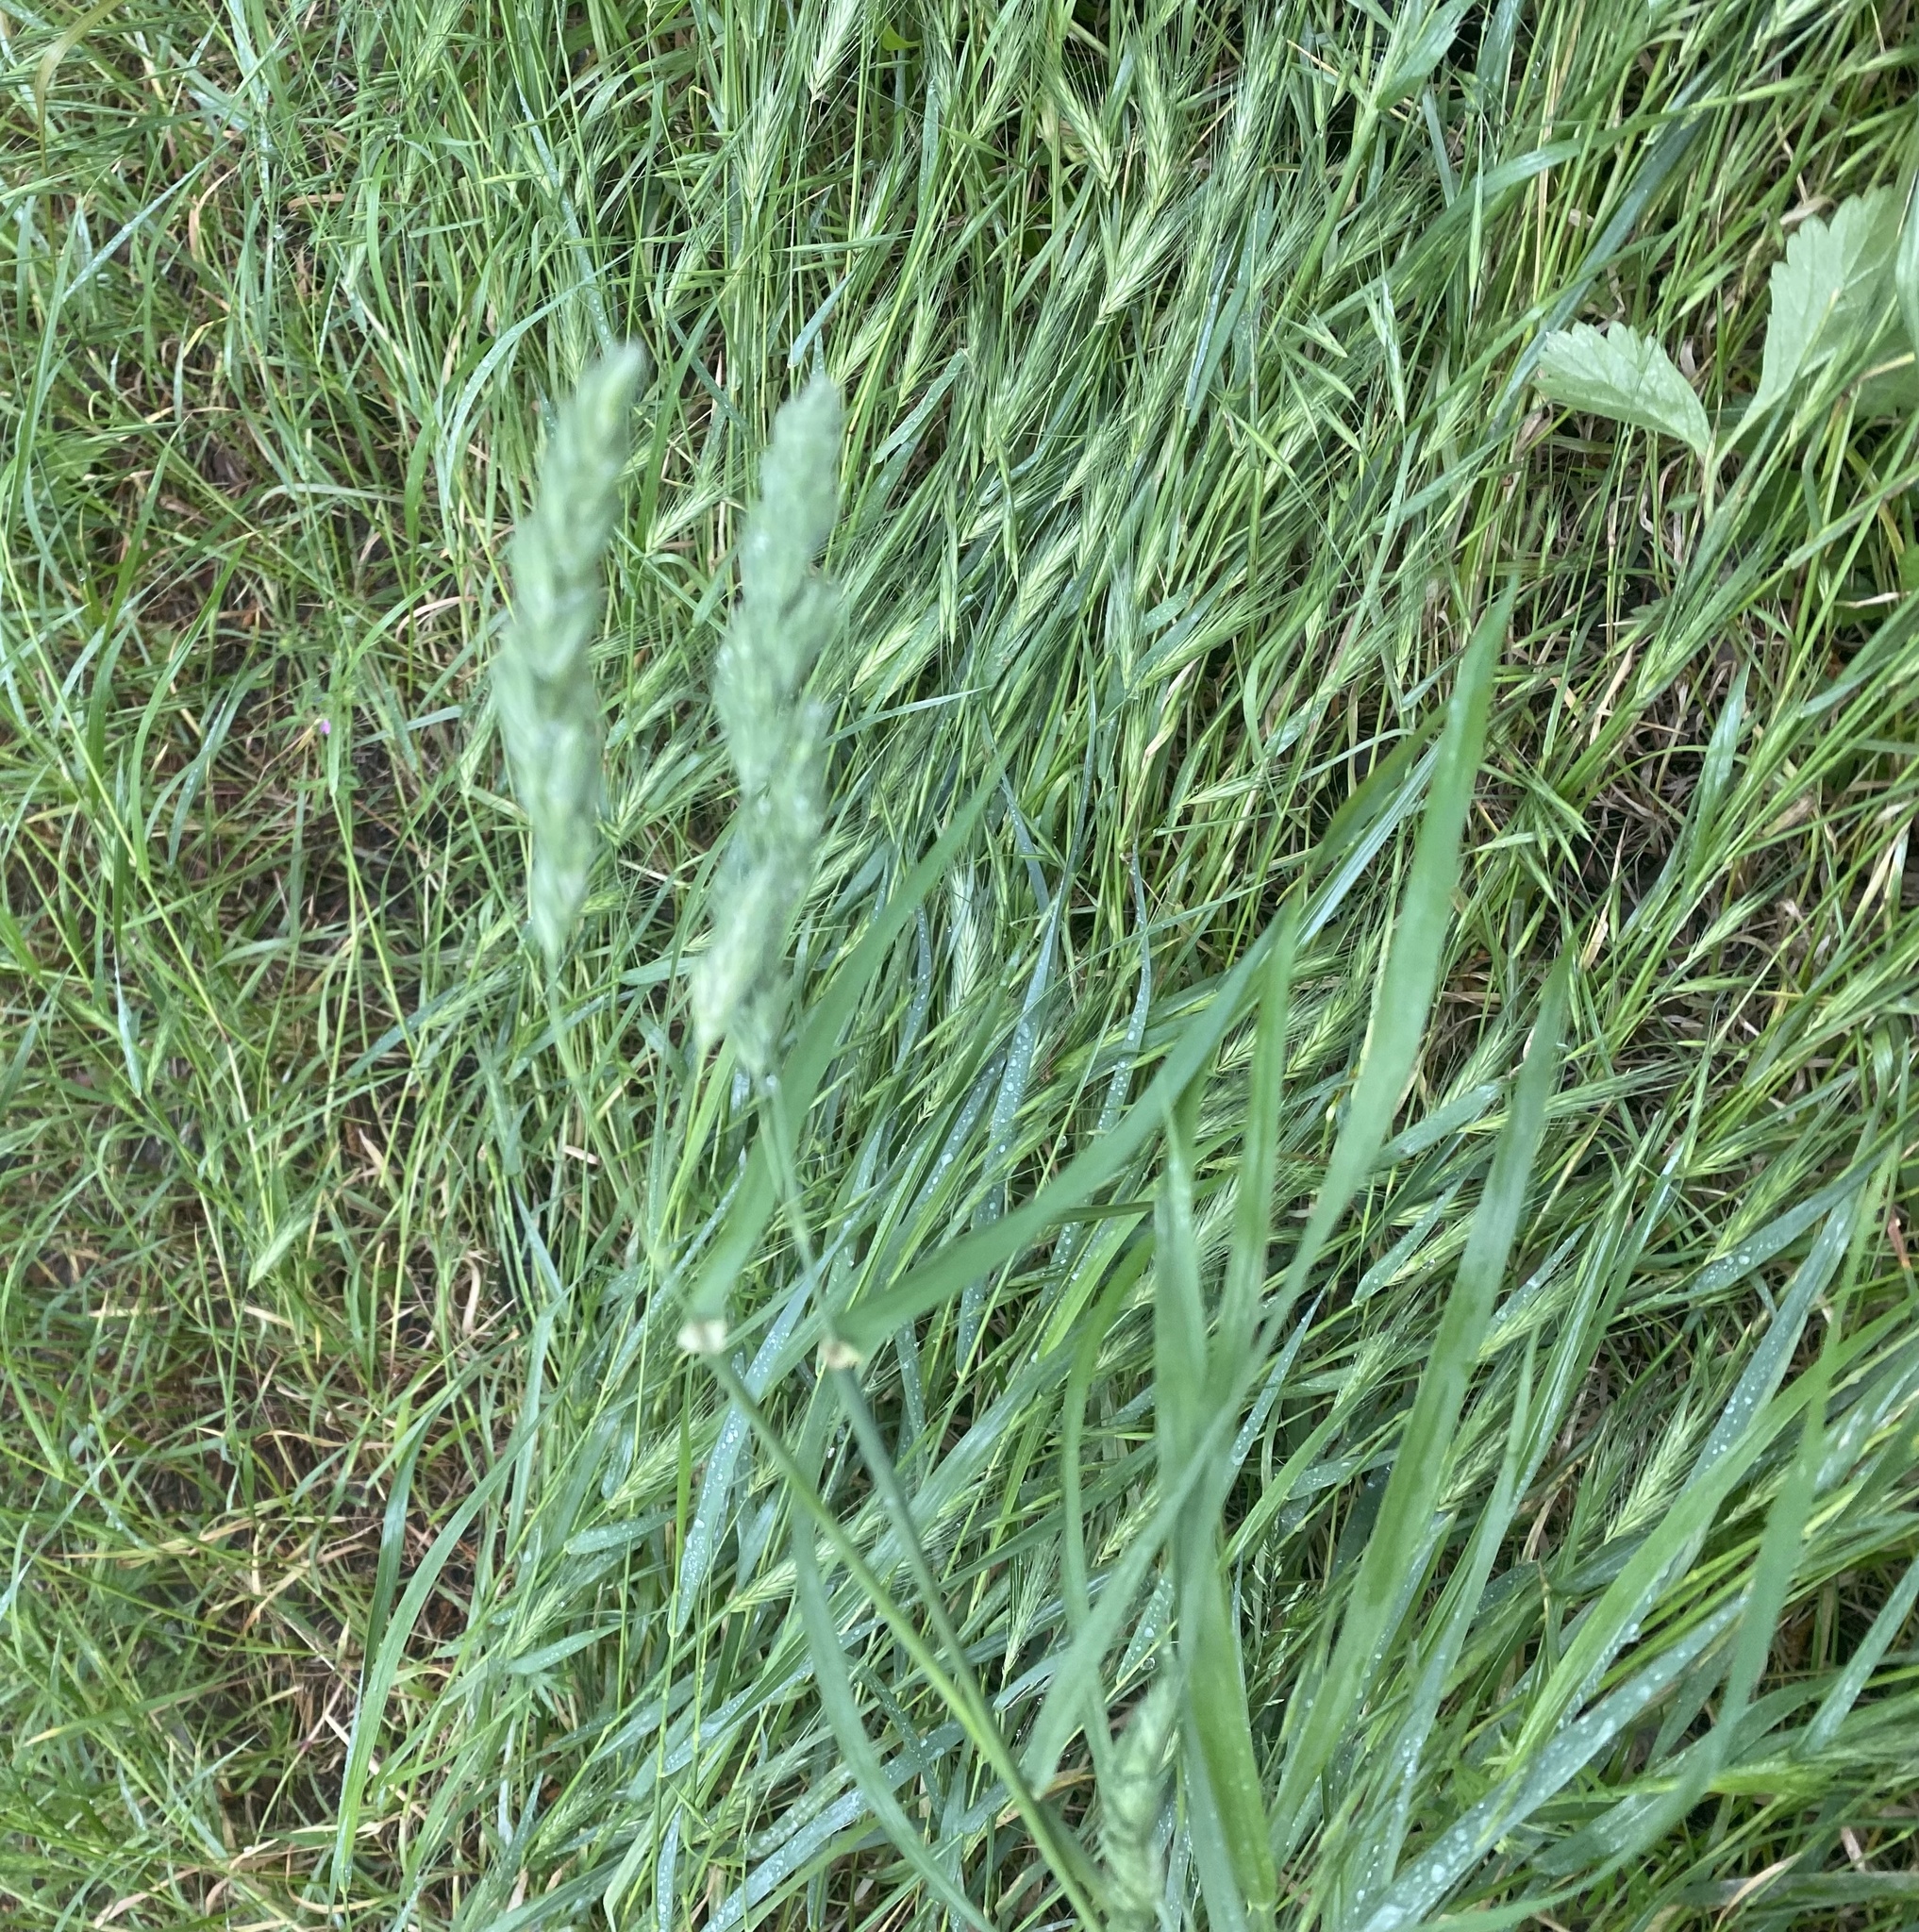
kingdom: Plantae
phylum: Tracheophyta
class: Liliopsida
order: Poales
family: Poaceae
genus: Dactylis
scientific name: Dactylis glomerata
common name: Orchardgrass
